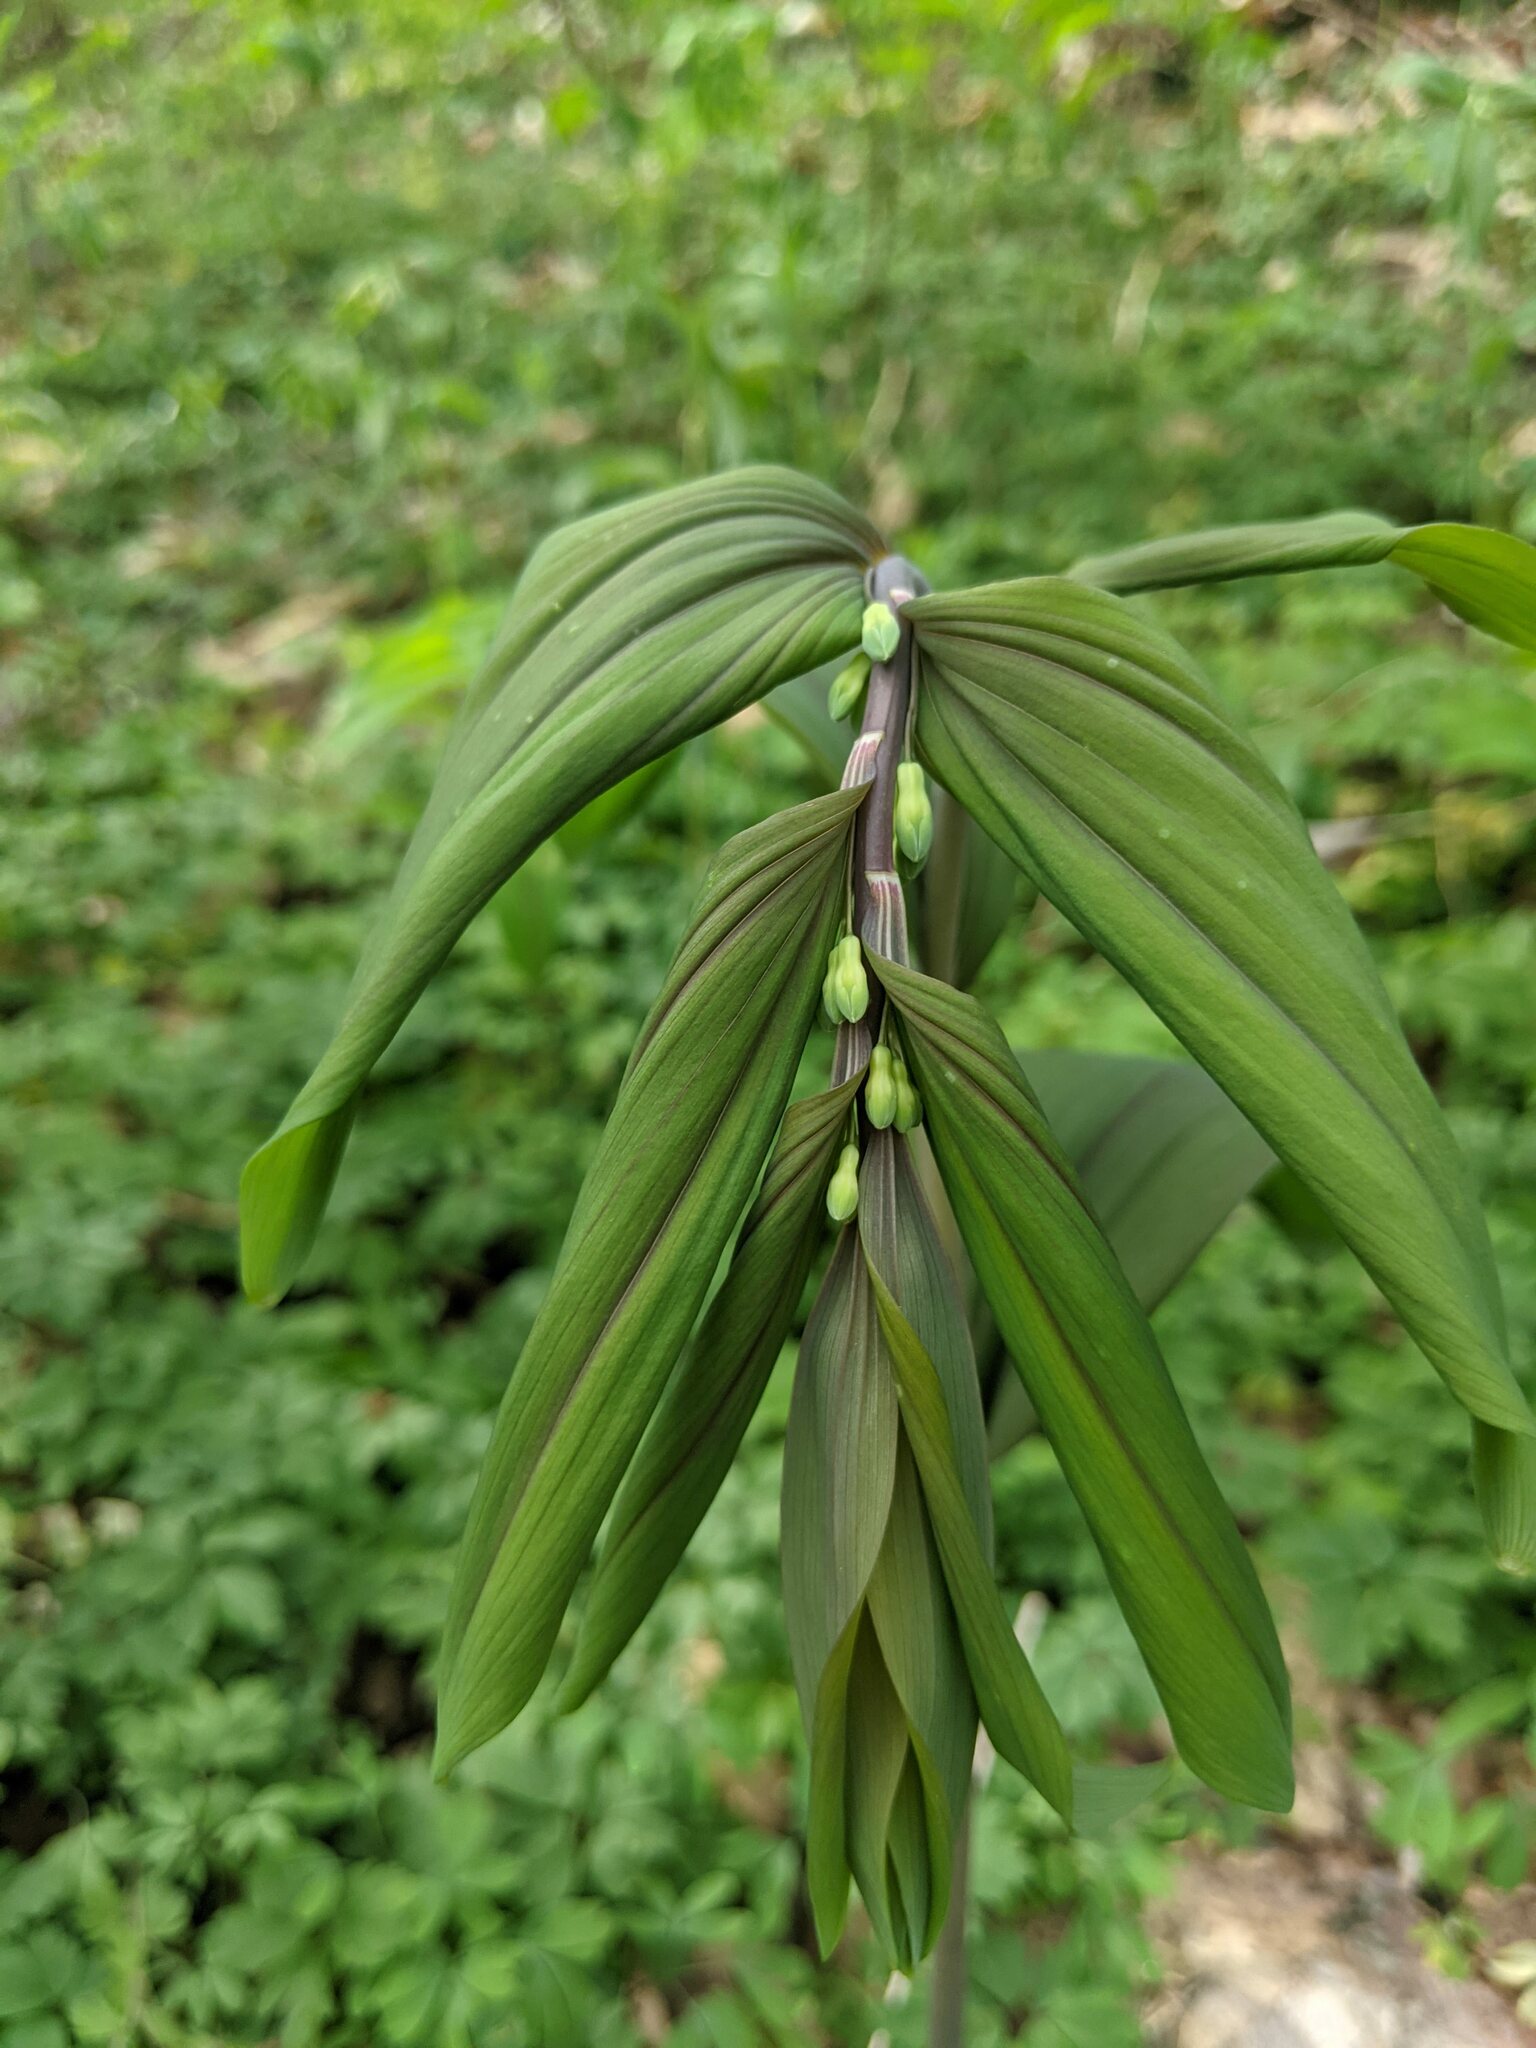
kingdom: Plantae
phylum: Tracheophyta
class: Liliopsida
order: Asparagales
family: Asparagaceae
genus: Polygonatum
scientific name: Polygonatum multiflorum
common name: Solomon's-seal
